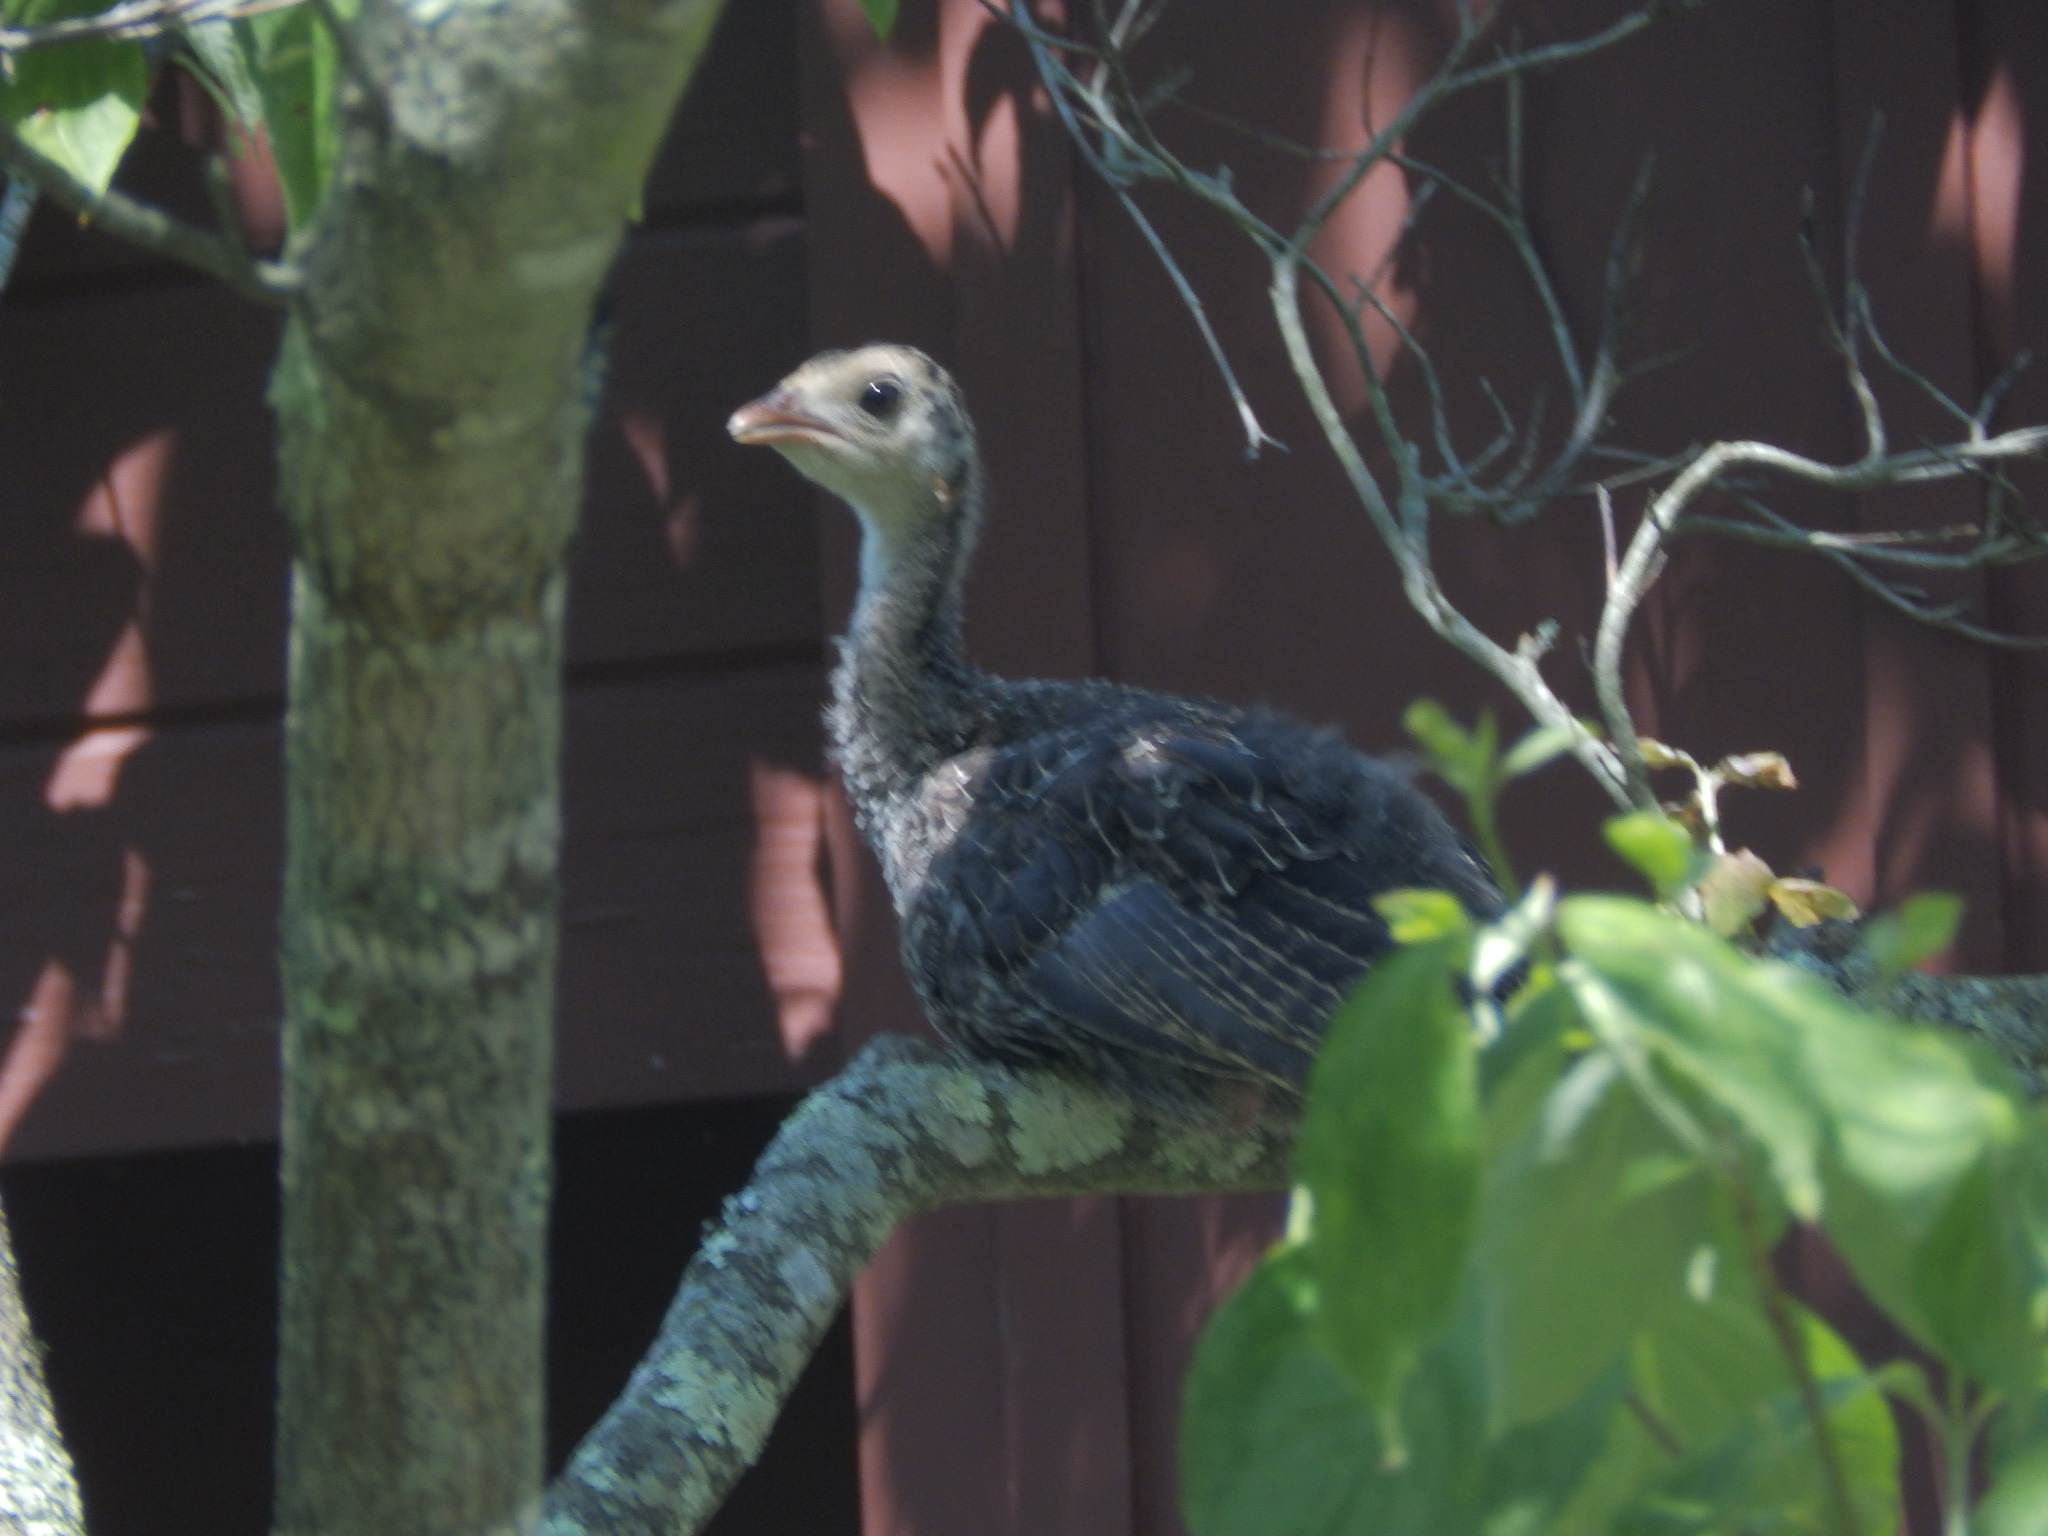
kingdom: Animalia
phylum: Chordata
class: Aves
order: Galliformes
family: Phasianidae
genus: Meleagris
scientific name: Meleagris gallopavo
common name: Wild turkey
